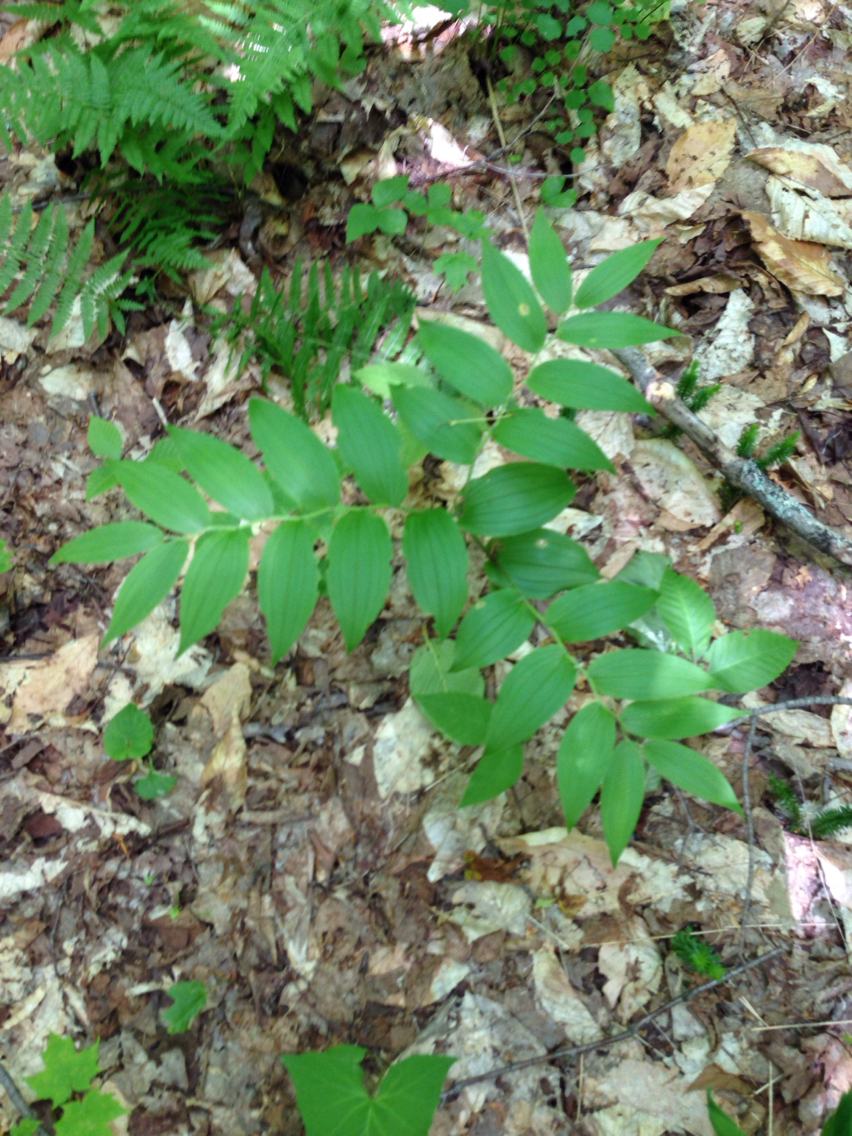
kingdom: Plantae
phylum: Tracheophyta
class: Liliopsida
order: Liliales
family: Liliaceae
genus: Streptopus
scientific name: Streptopus lanceolatus
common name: Rose mandarin
